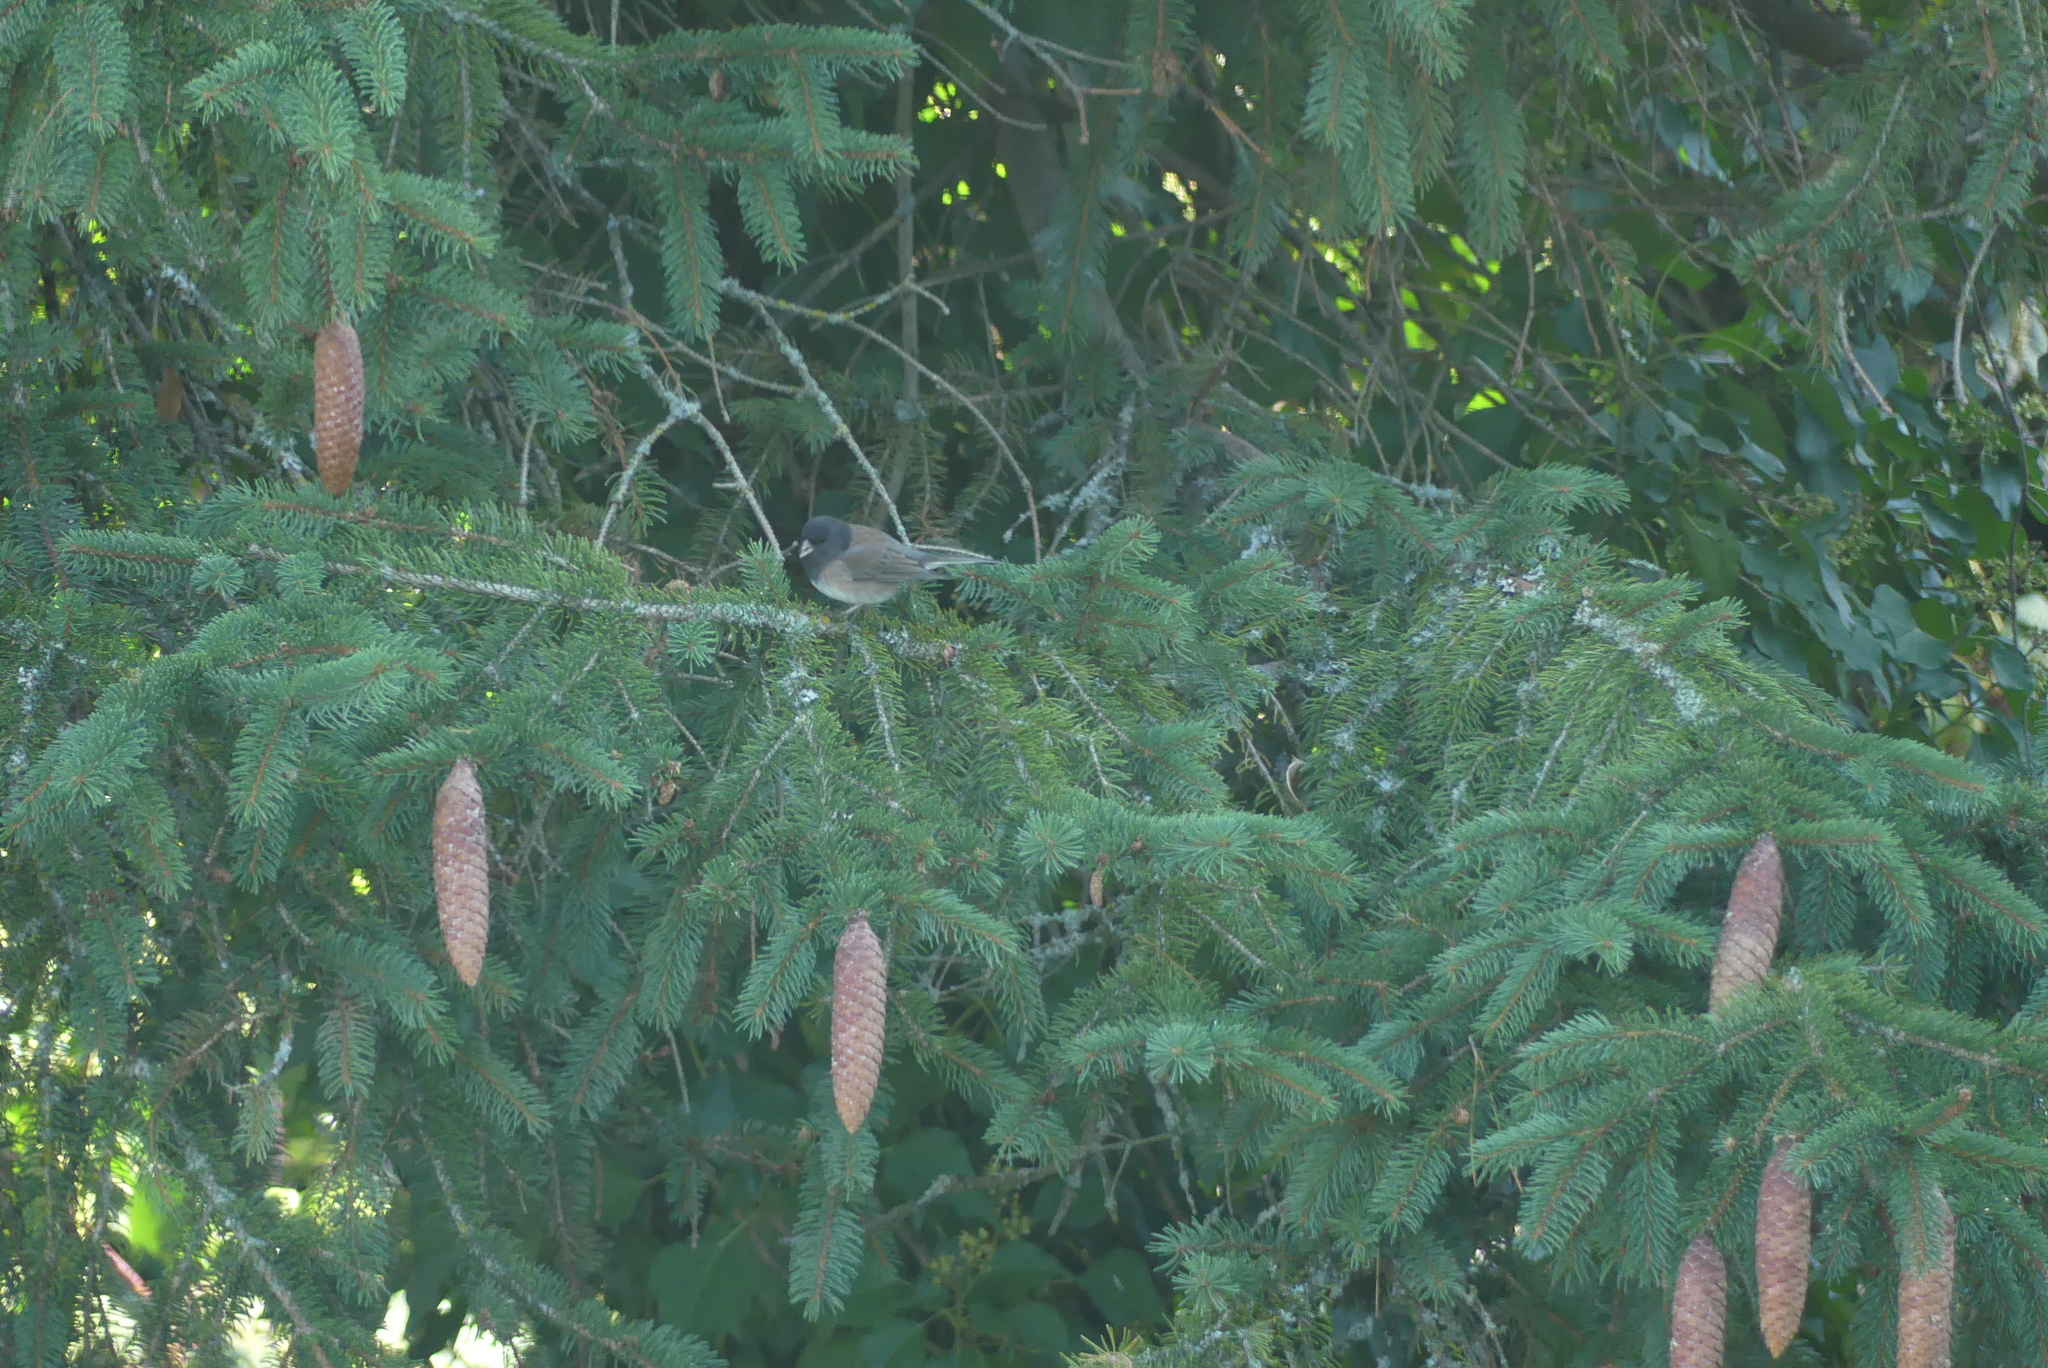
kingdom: Animalia
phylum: Chordata
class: Aves
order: Passeriformes
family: Passerellidae
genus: Junco
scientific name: Junco hyemalis
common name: Dark-eyed junco
